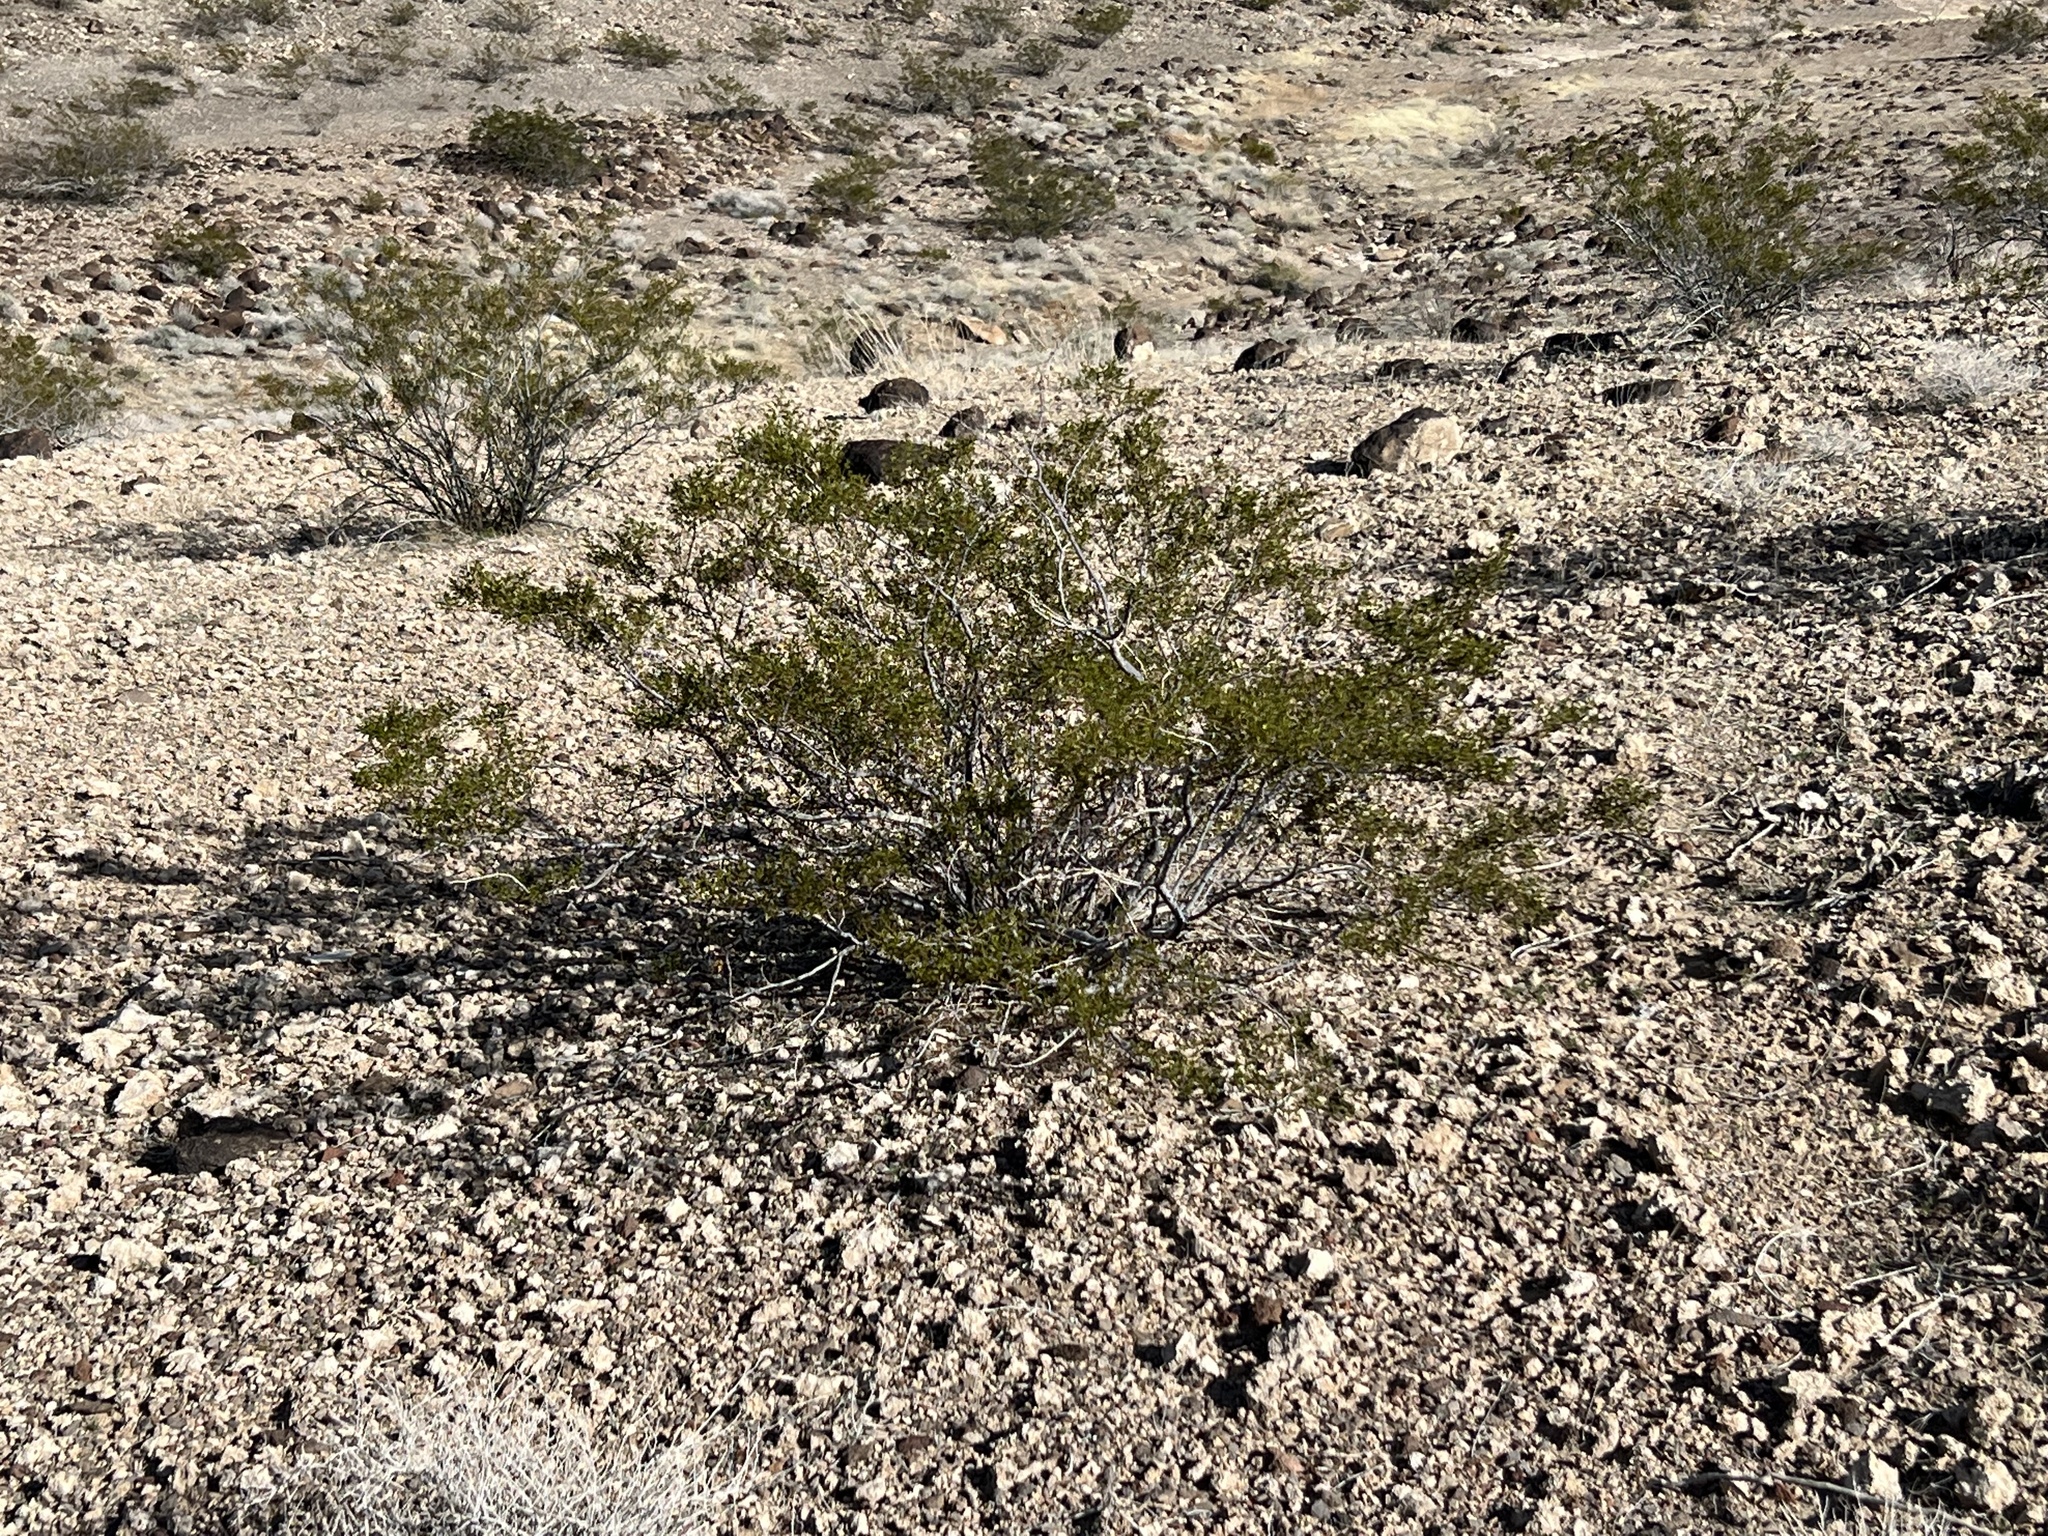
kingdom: Plantae
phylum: Tracheophyta
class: Magnoliopsida
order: Zygophyllales
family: Zygophyllaceae
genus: Larrea
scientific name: Larrea tridentata
